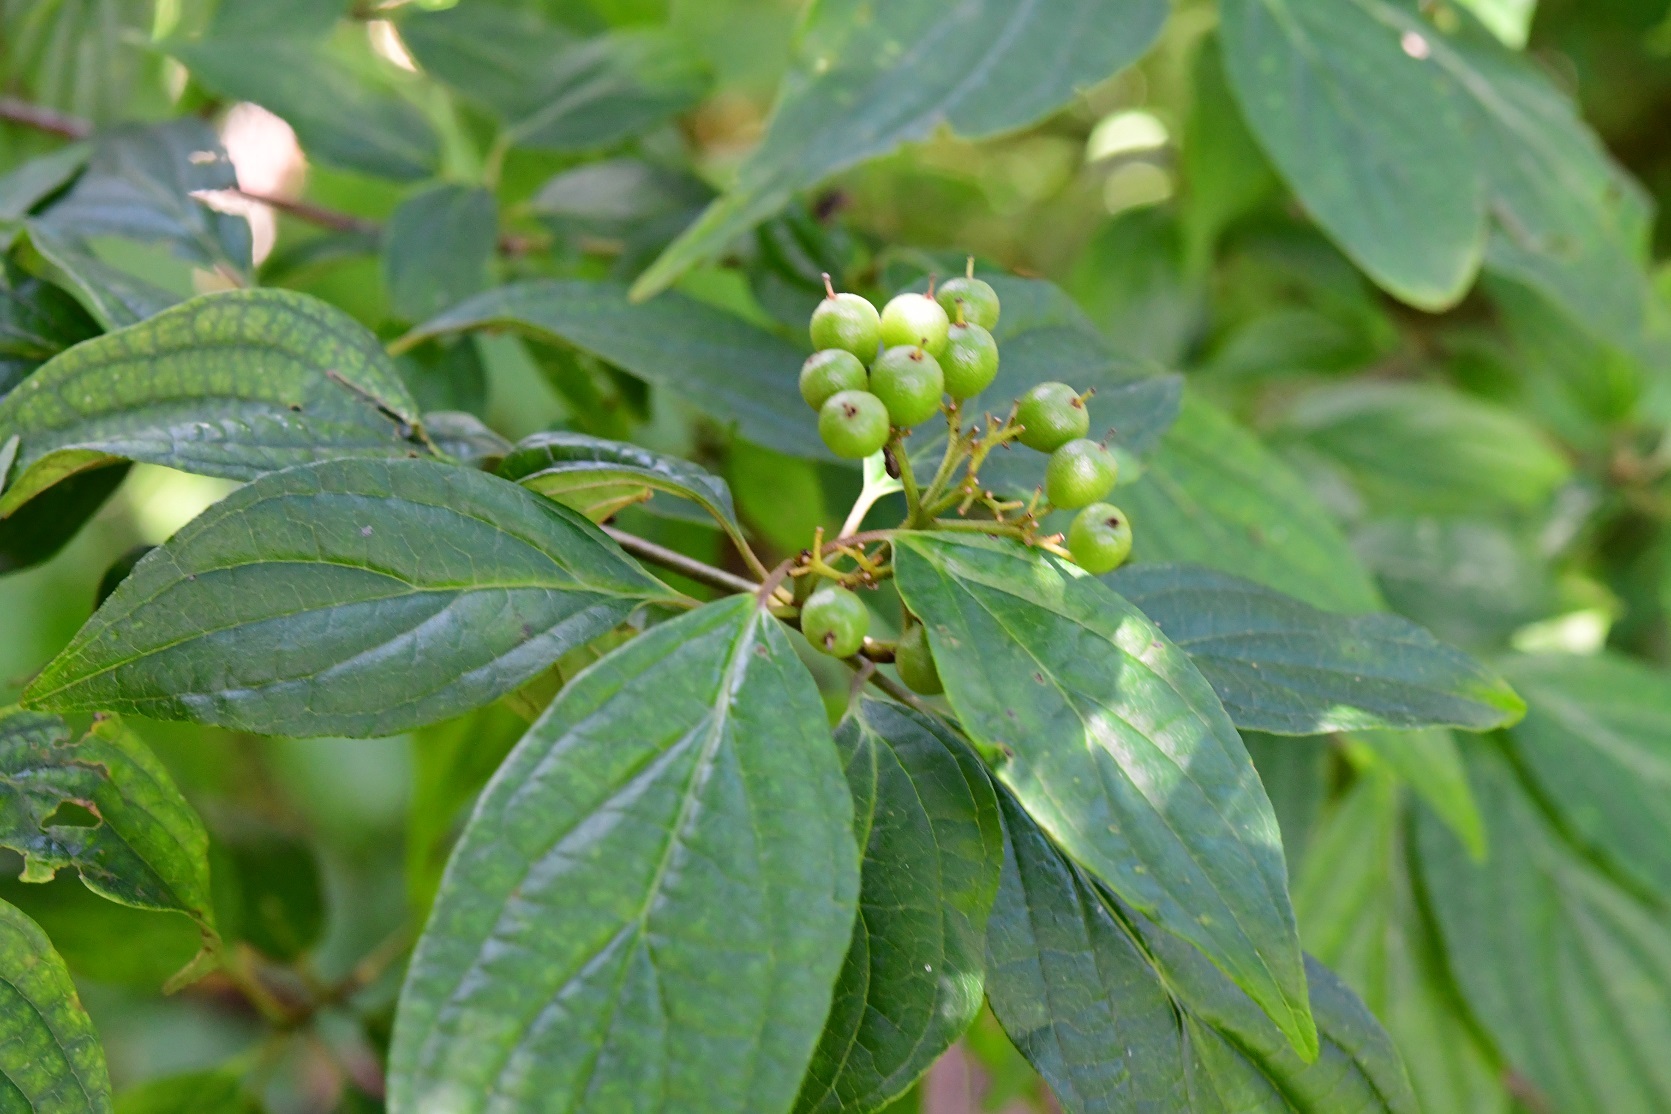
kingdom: Plantae
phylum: Tracheophyta
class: Magnoliopsida
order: Cornales
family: Cornaceae
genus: Cornus
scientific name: Cornus excelsa
